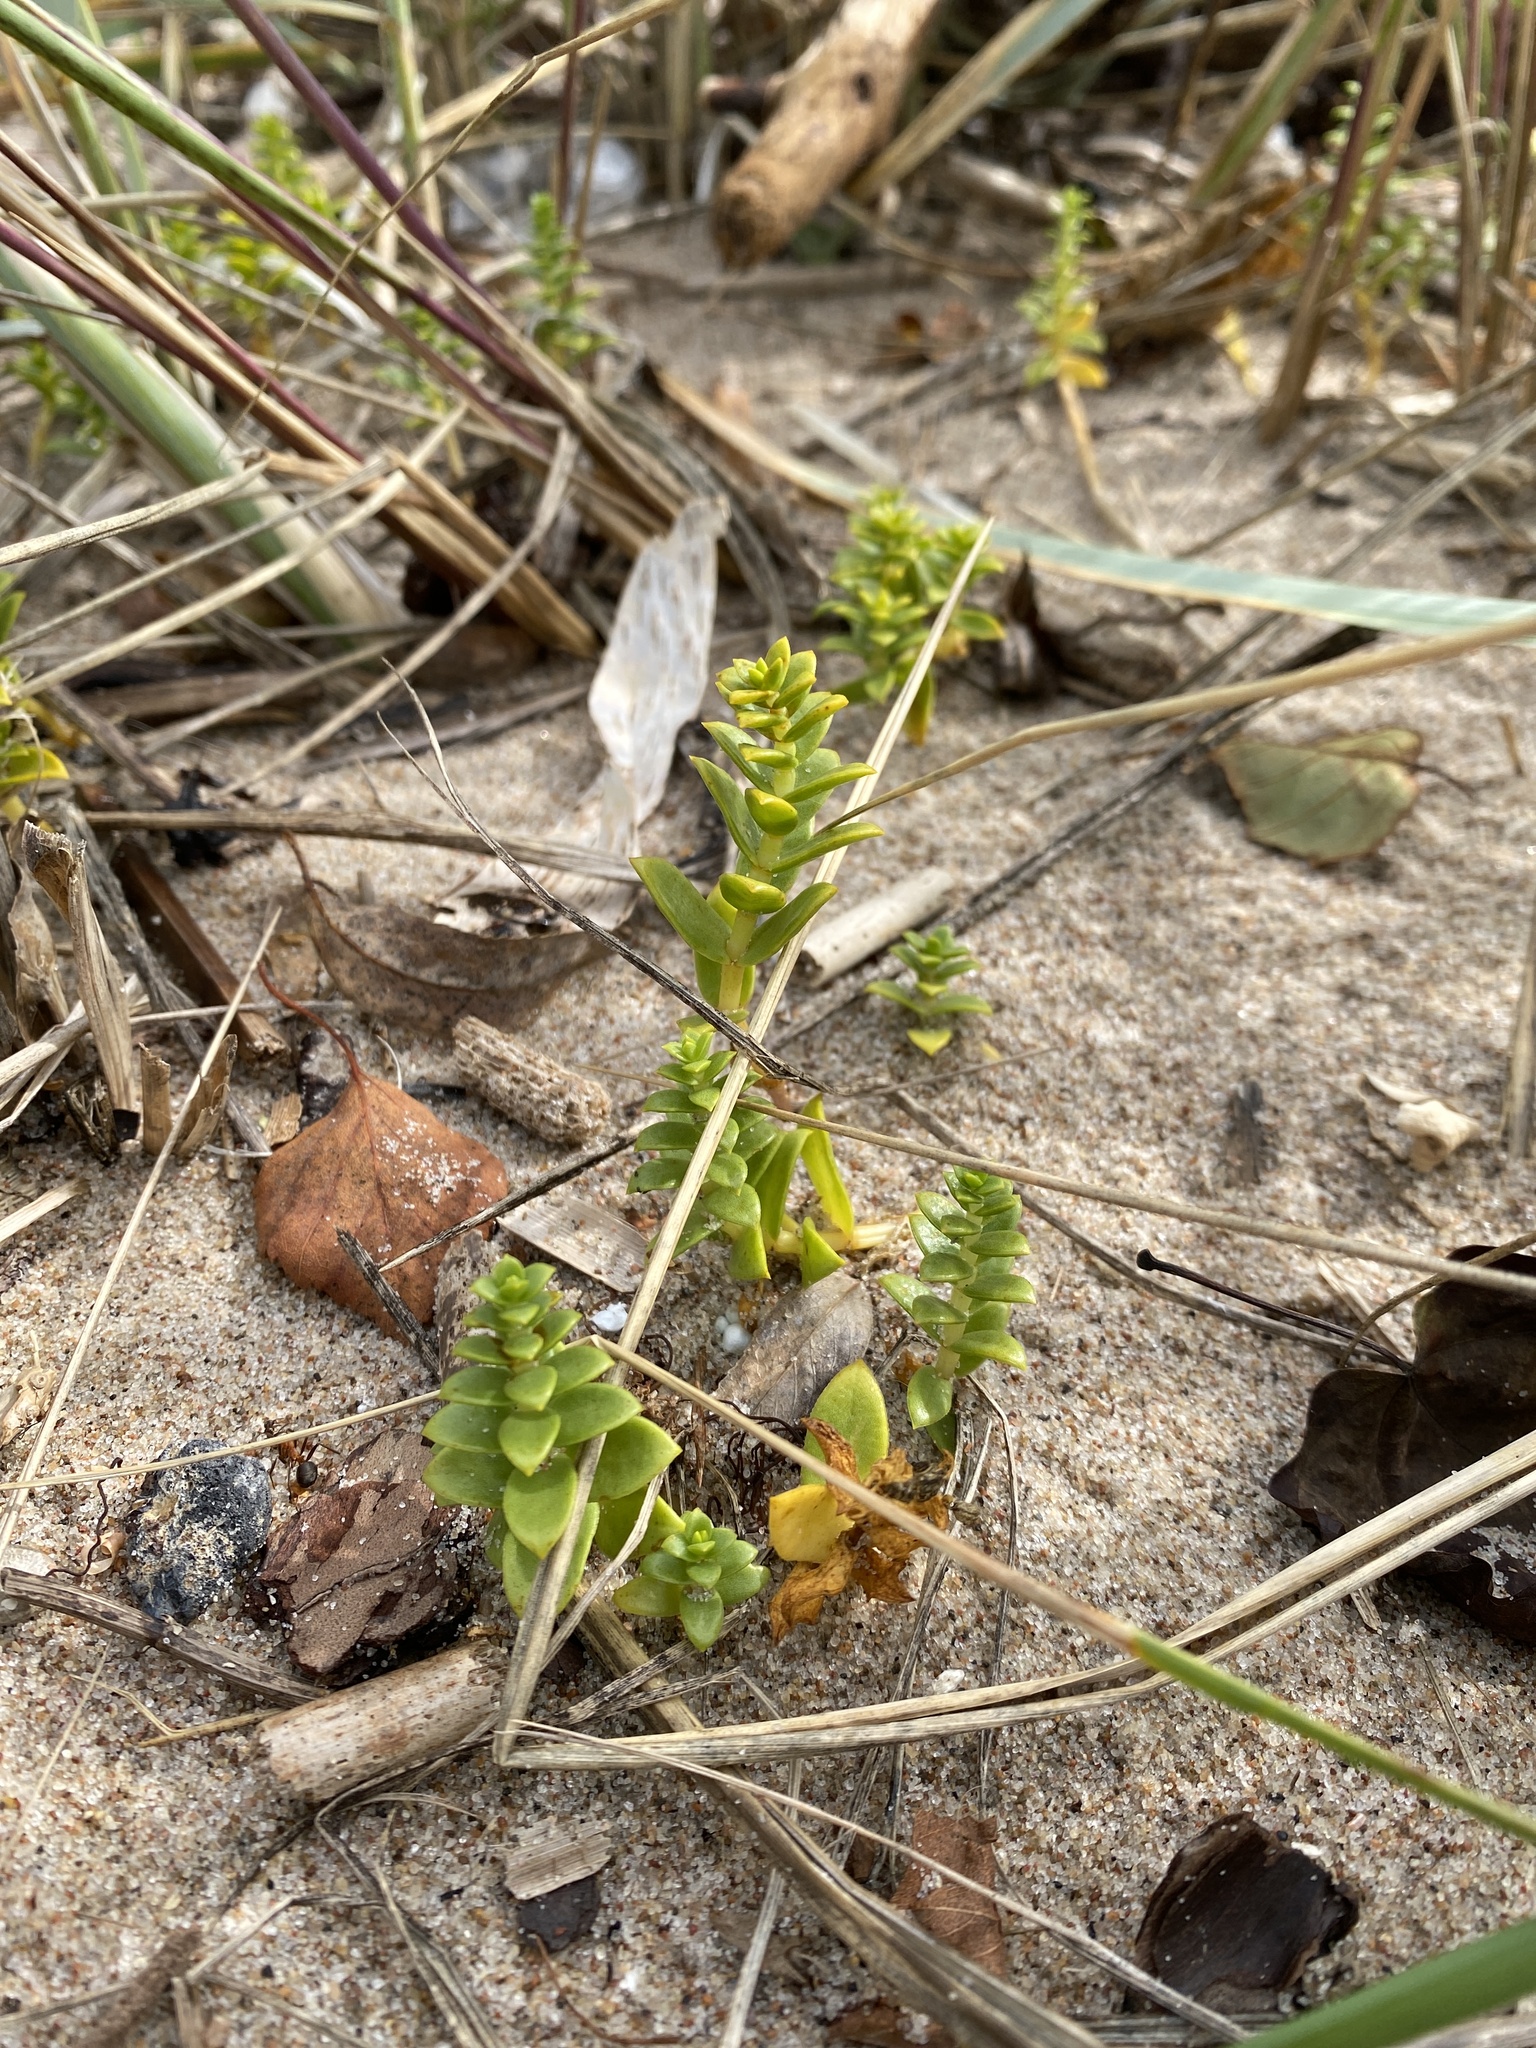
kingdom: Plantae
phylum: Tracheophyta
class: Magnoliopsida
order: Caryophyllales
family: Caryophyllaceae
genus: Honckenya
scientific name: Honckenya peploides
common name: Sea sandwort
